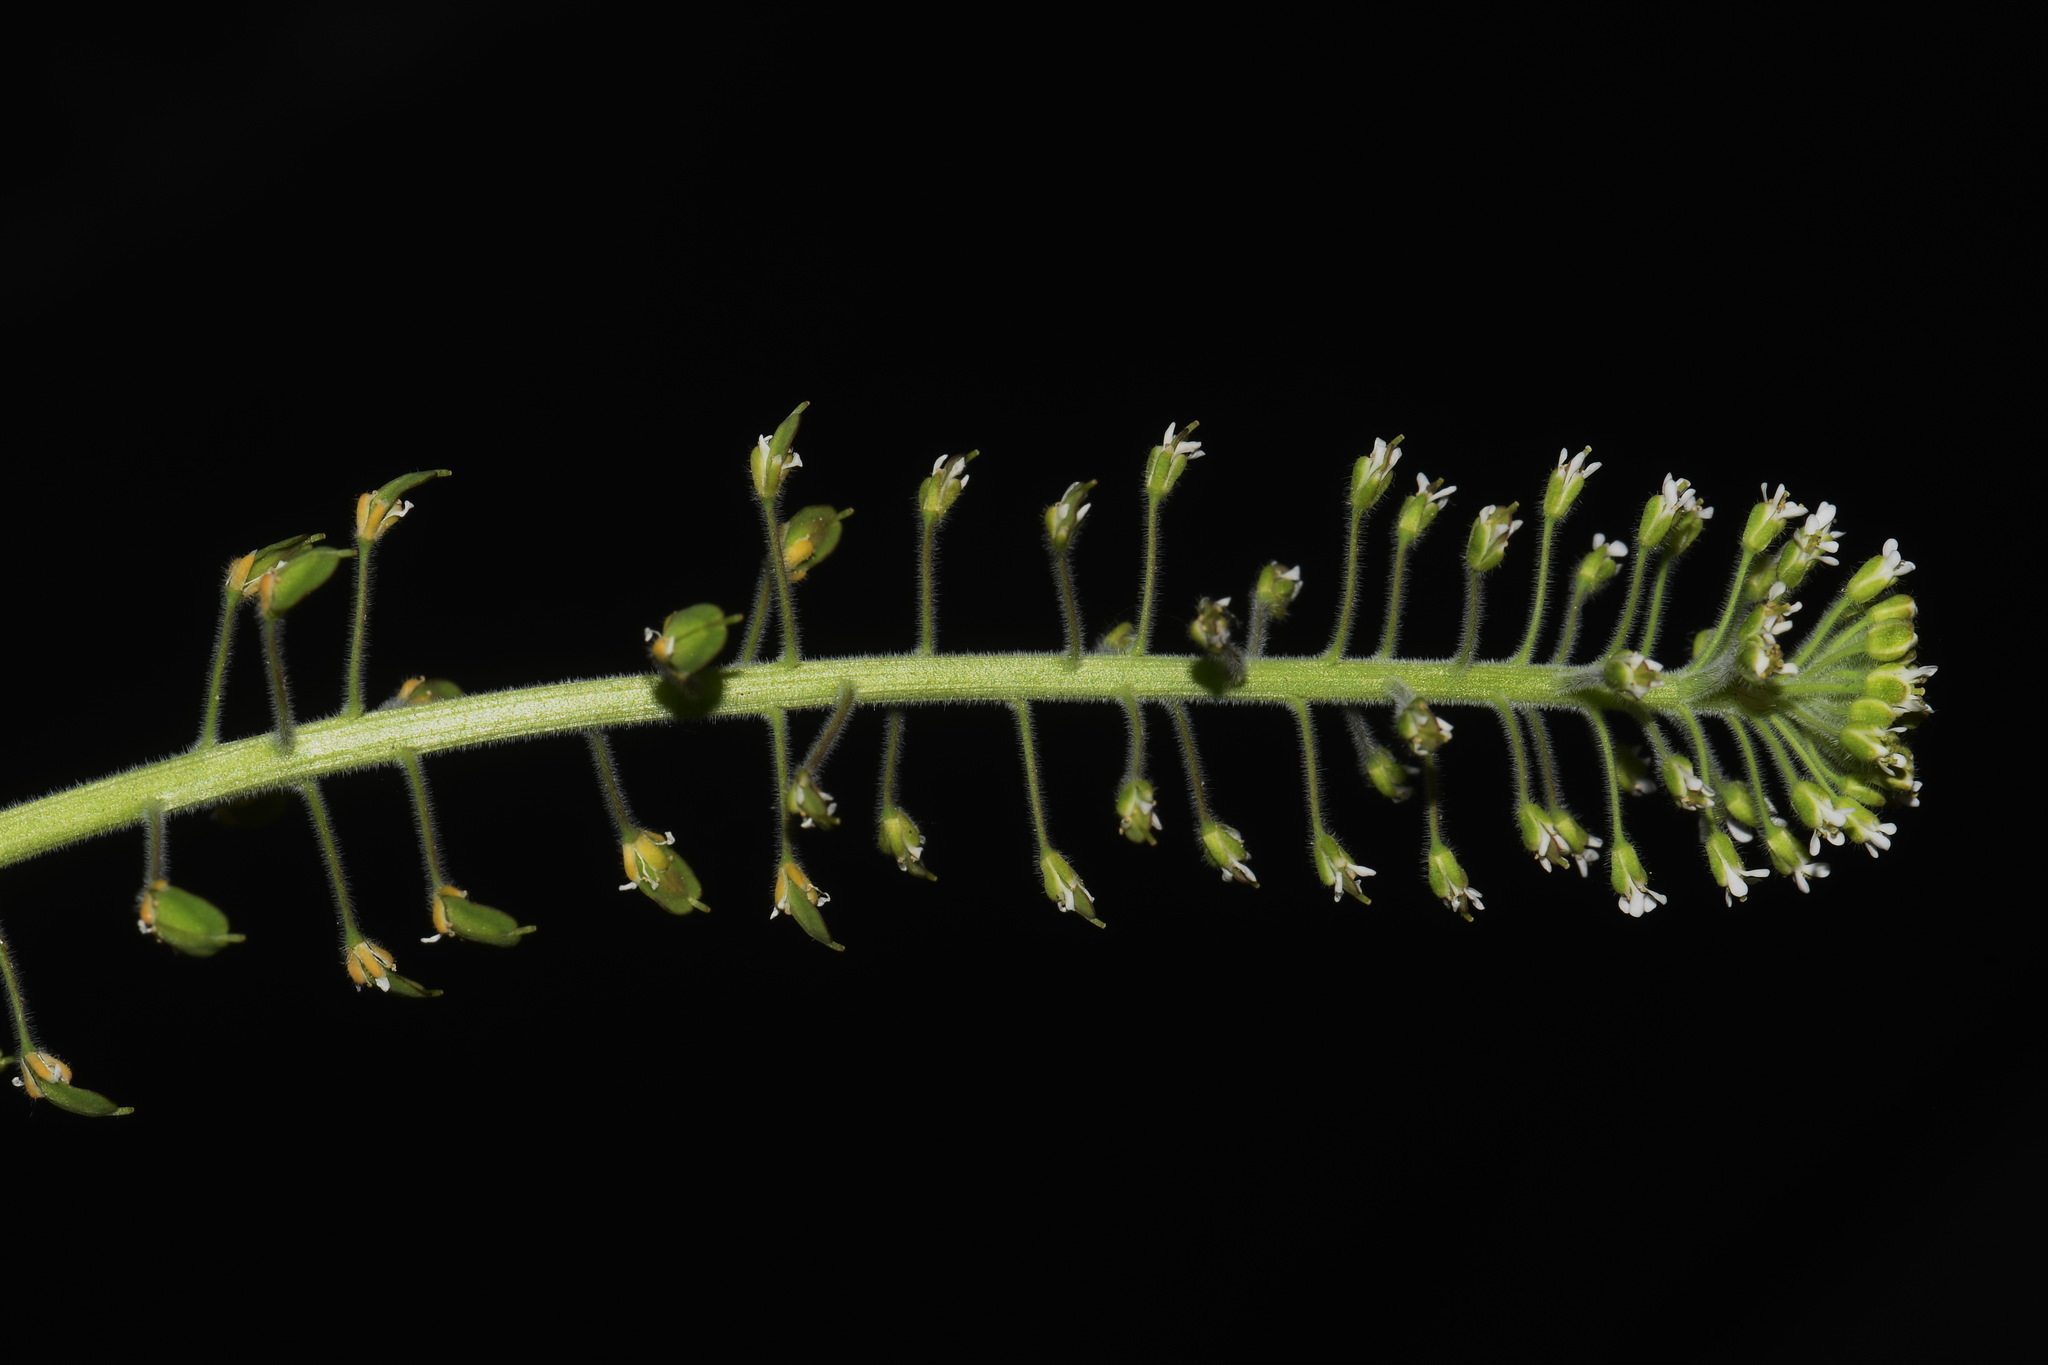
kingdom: Plantae
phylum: Tracheophyta
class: Magnoliopsida
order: Brassicales
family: Brassicaceae
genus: Lepidium
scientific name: Lepidium campestre
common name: Field pepperwort
